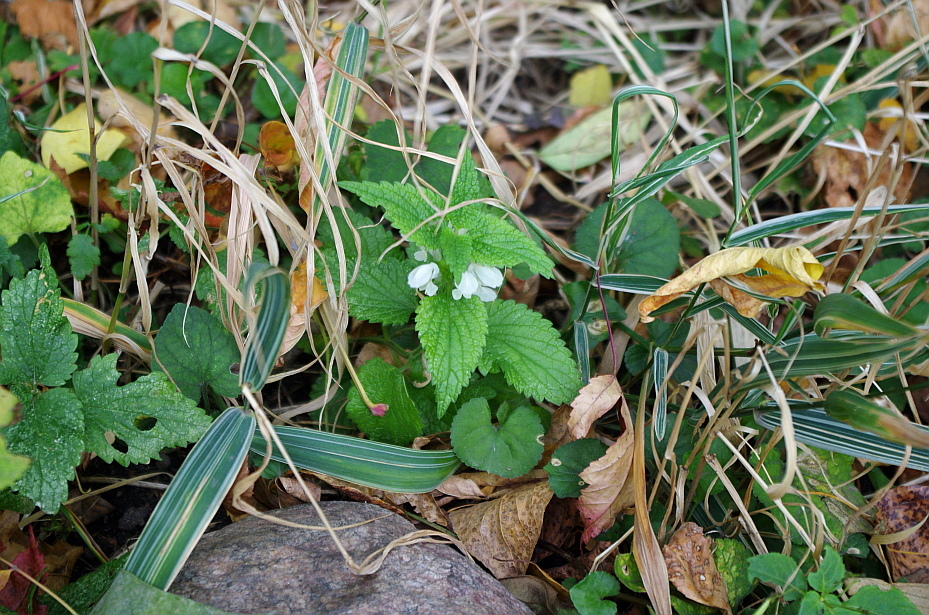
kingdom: Plantae
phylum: Tracheophyta
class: Magnoliopsida
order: Lamiales
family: Lamiaceae
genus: Lamium
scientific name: Lamium album
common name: White dead-nettle
